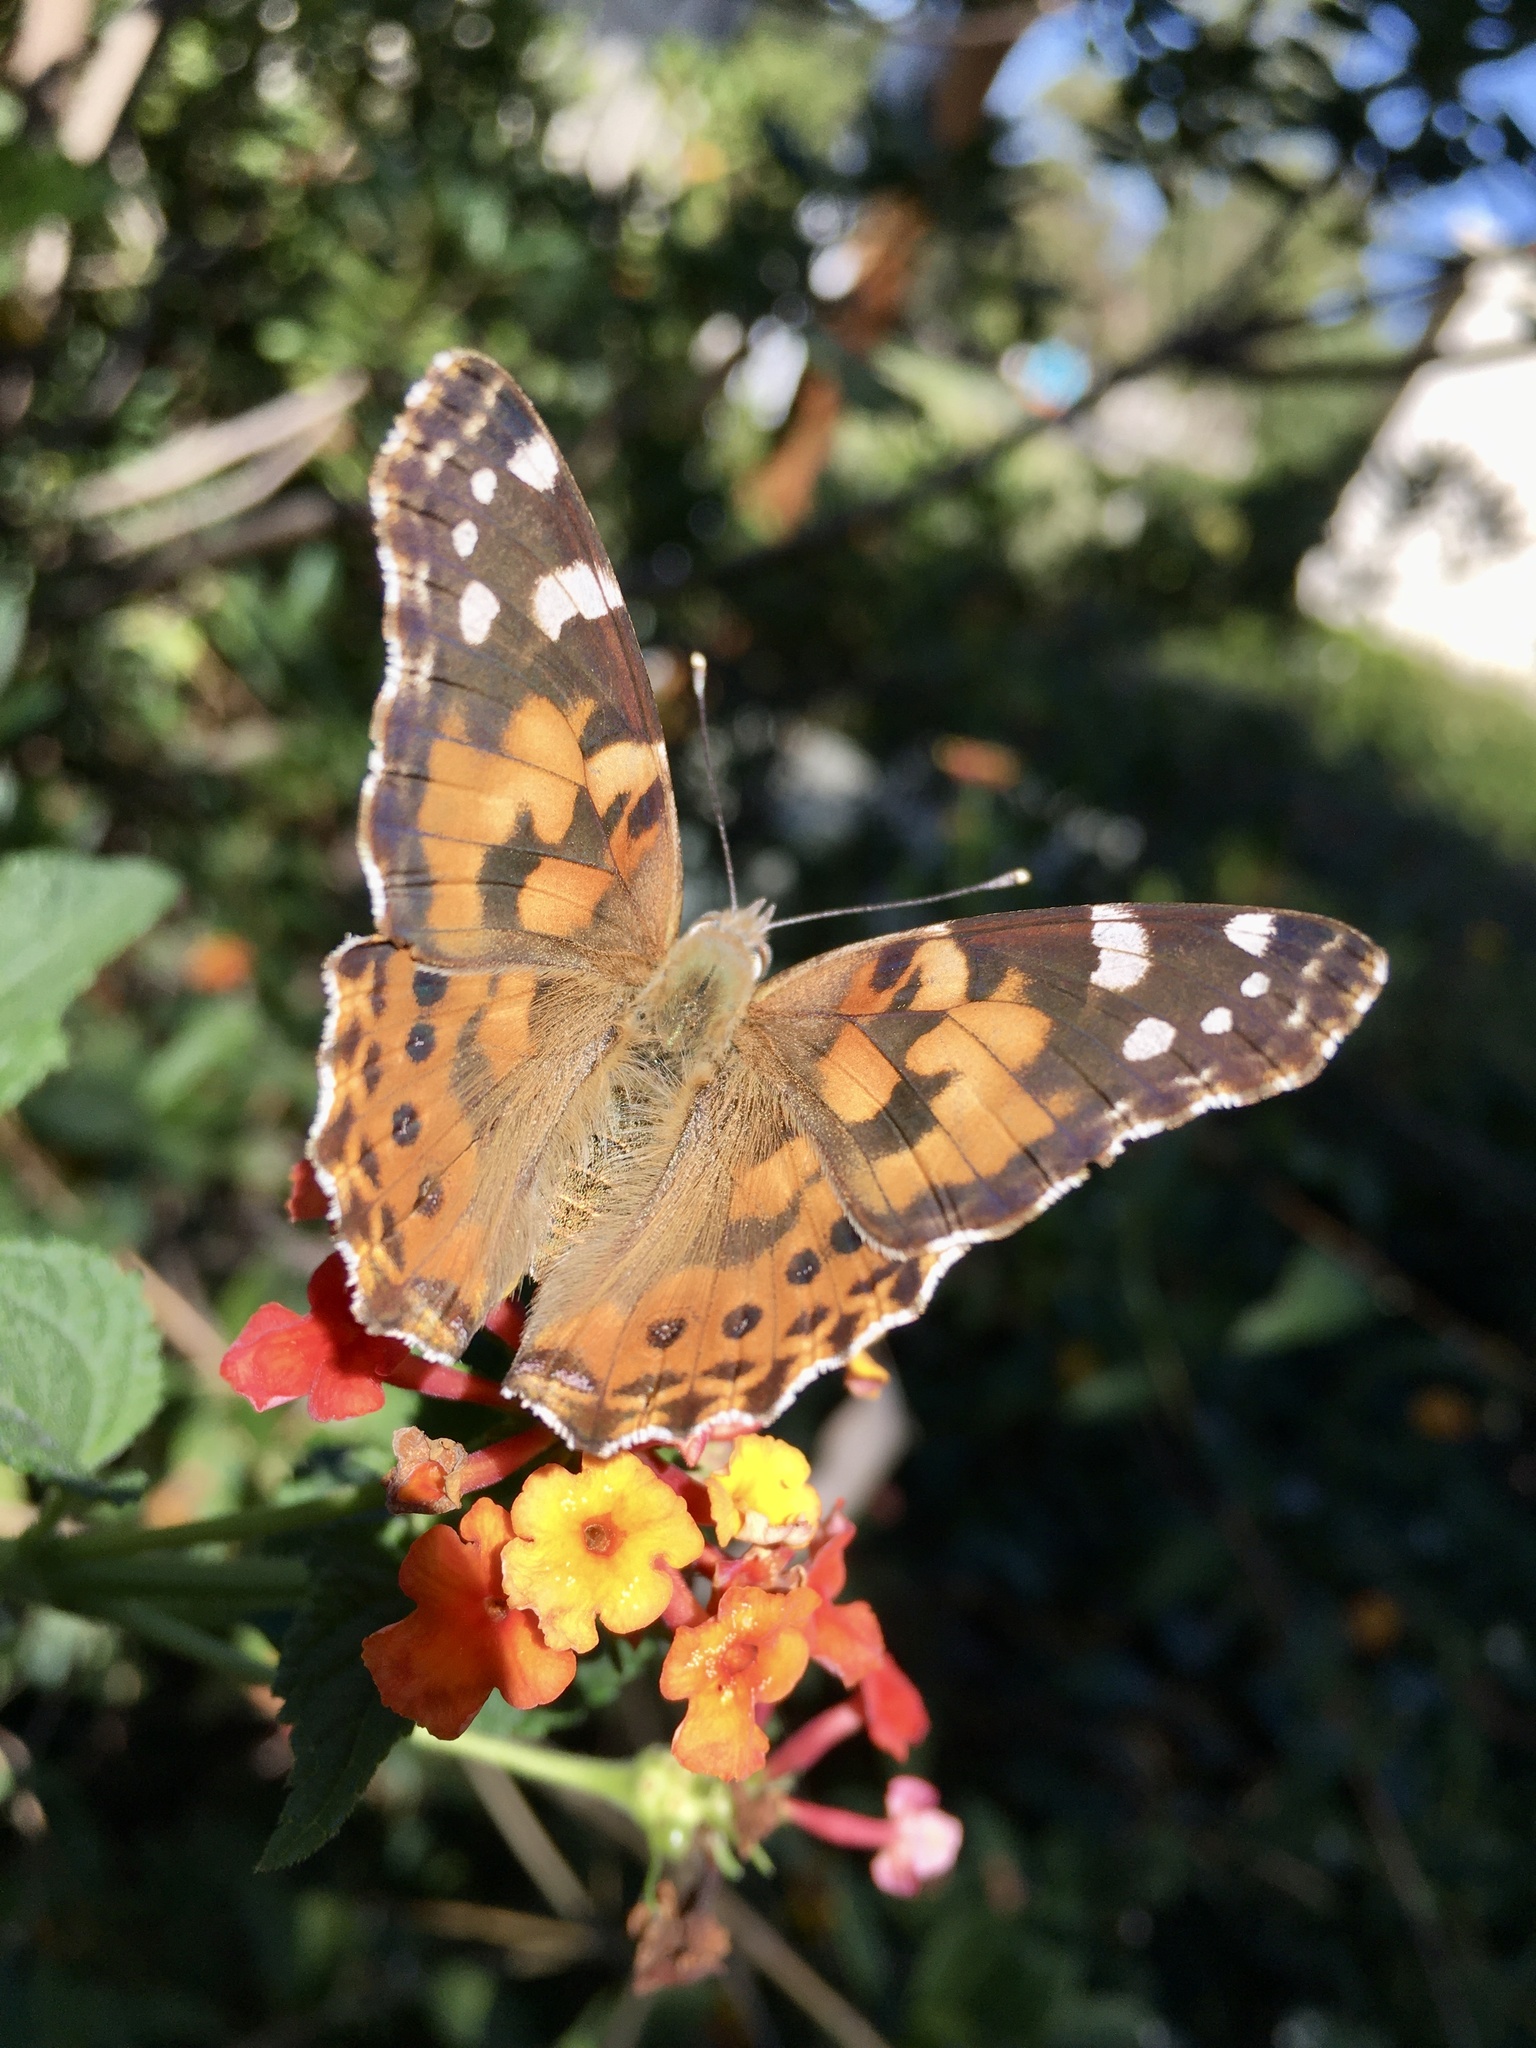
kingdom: Animalia
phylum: Arthropoda
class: Insecta
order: Lepidoptera
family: Nymphalidae
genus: Vanessa
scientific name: Vanessa cardui
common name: Painted lady
